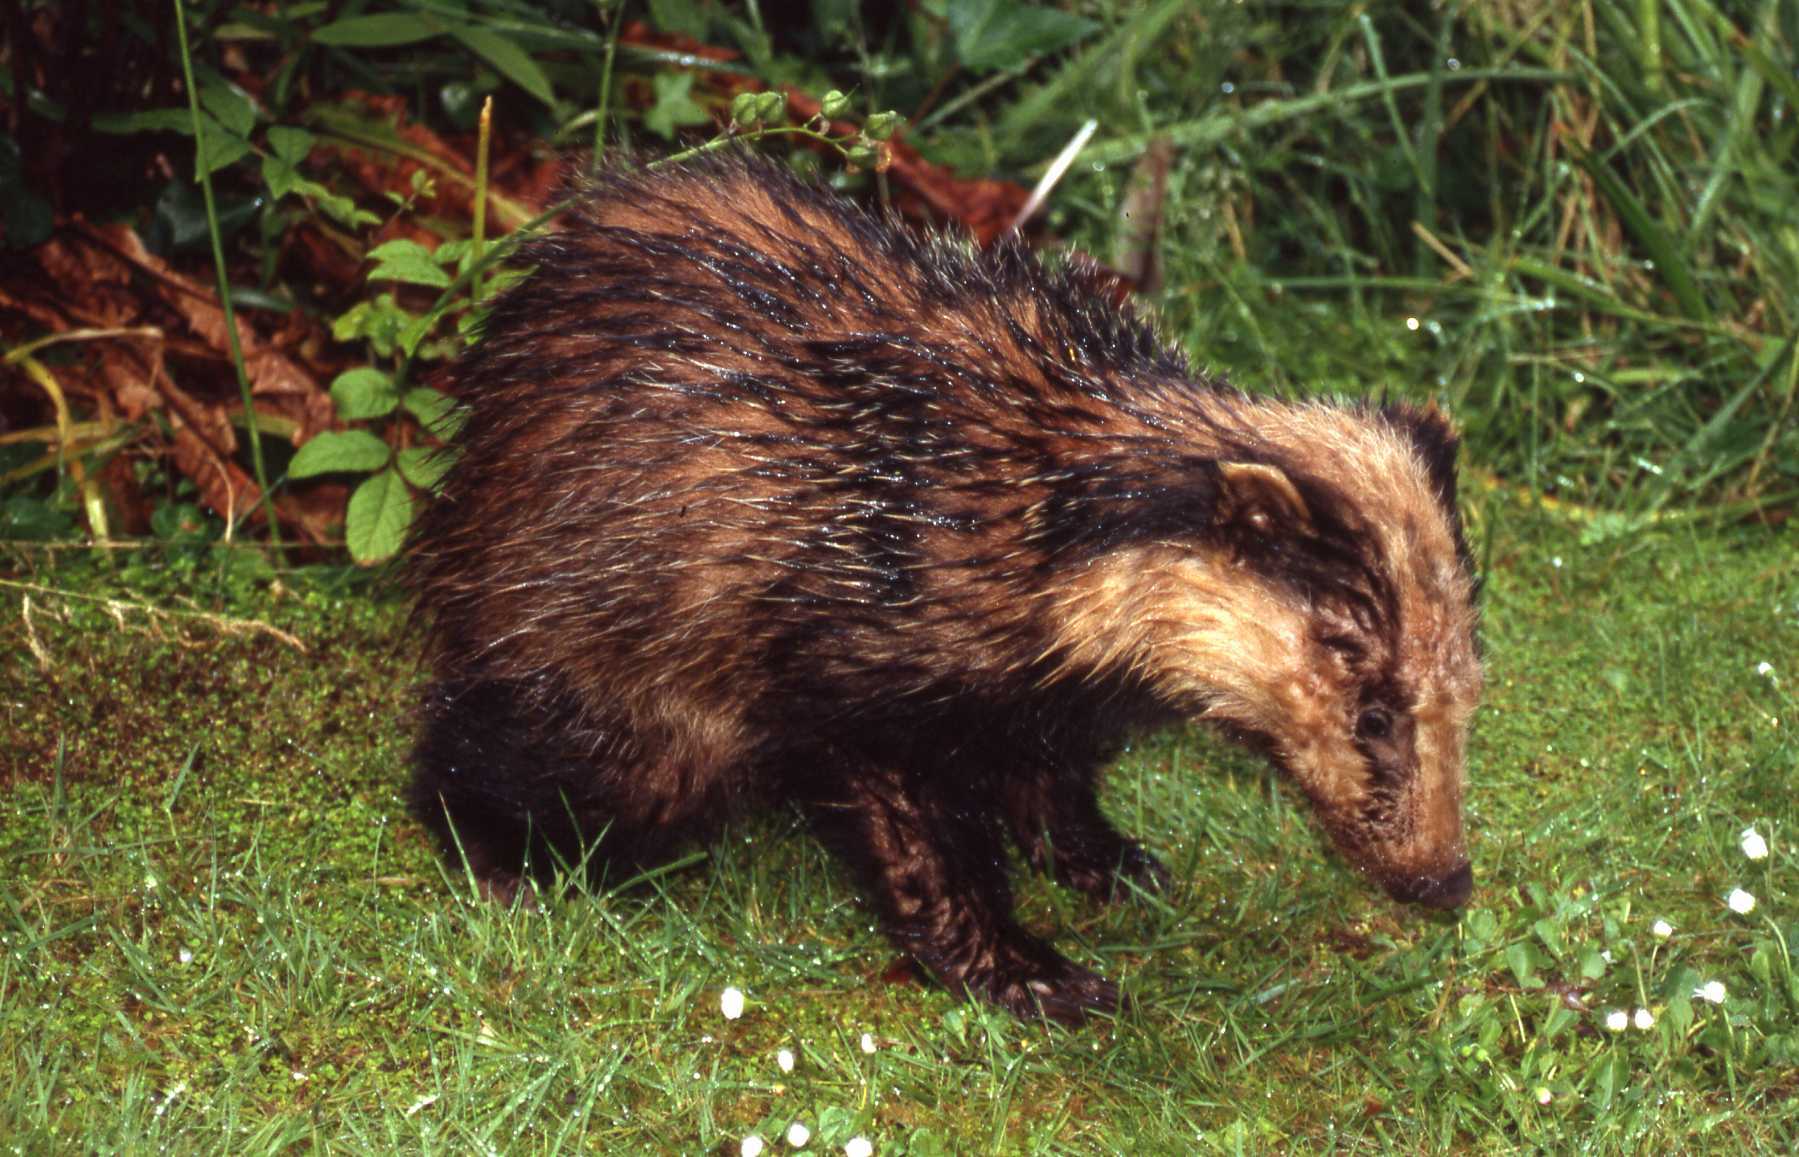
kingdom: Animalia
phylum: Chordata
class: Mammalia
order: Carnivora
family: Mustelidae
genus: Meles
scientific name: Meles meles
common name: Eurasian badger
